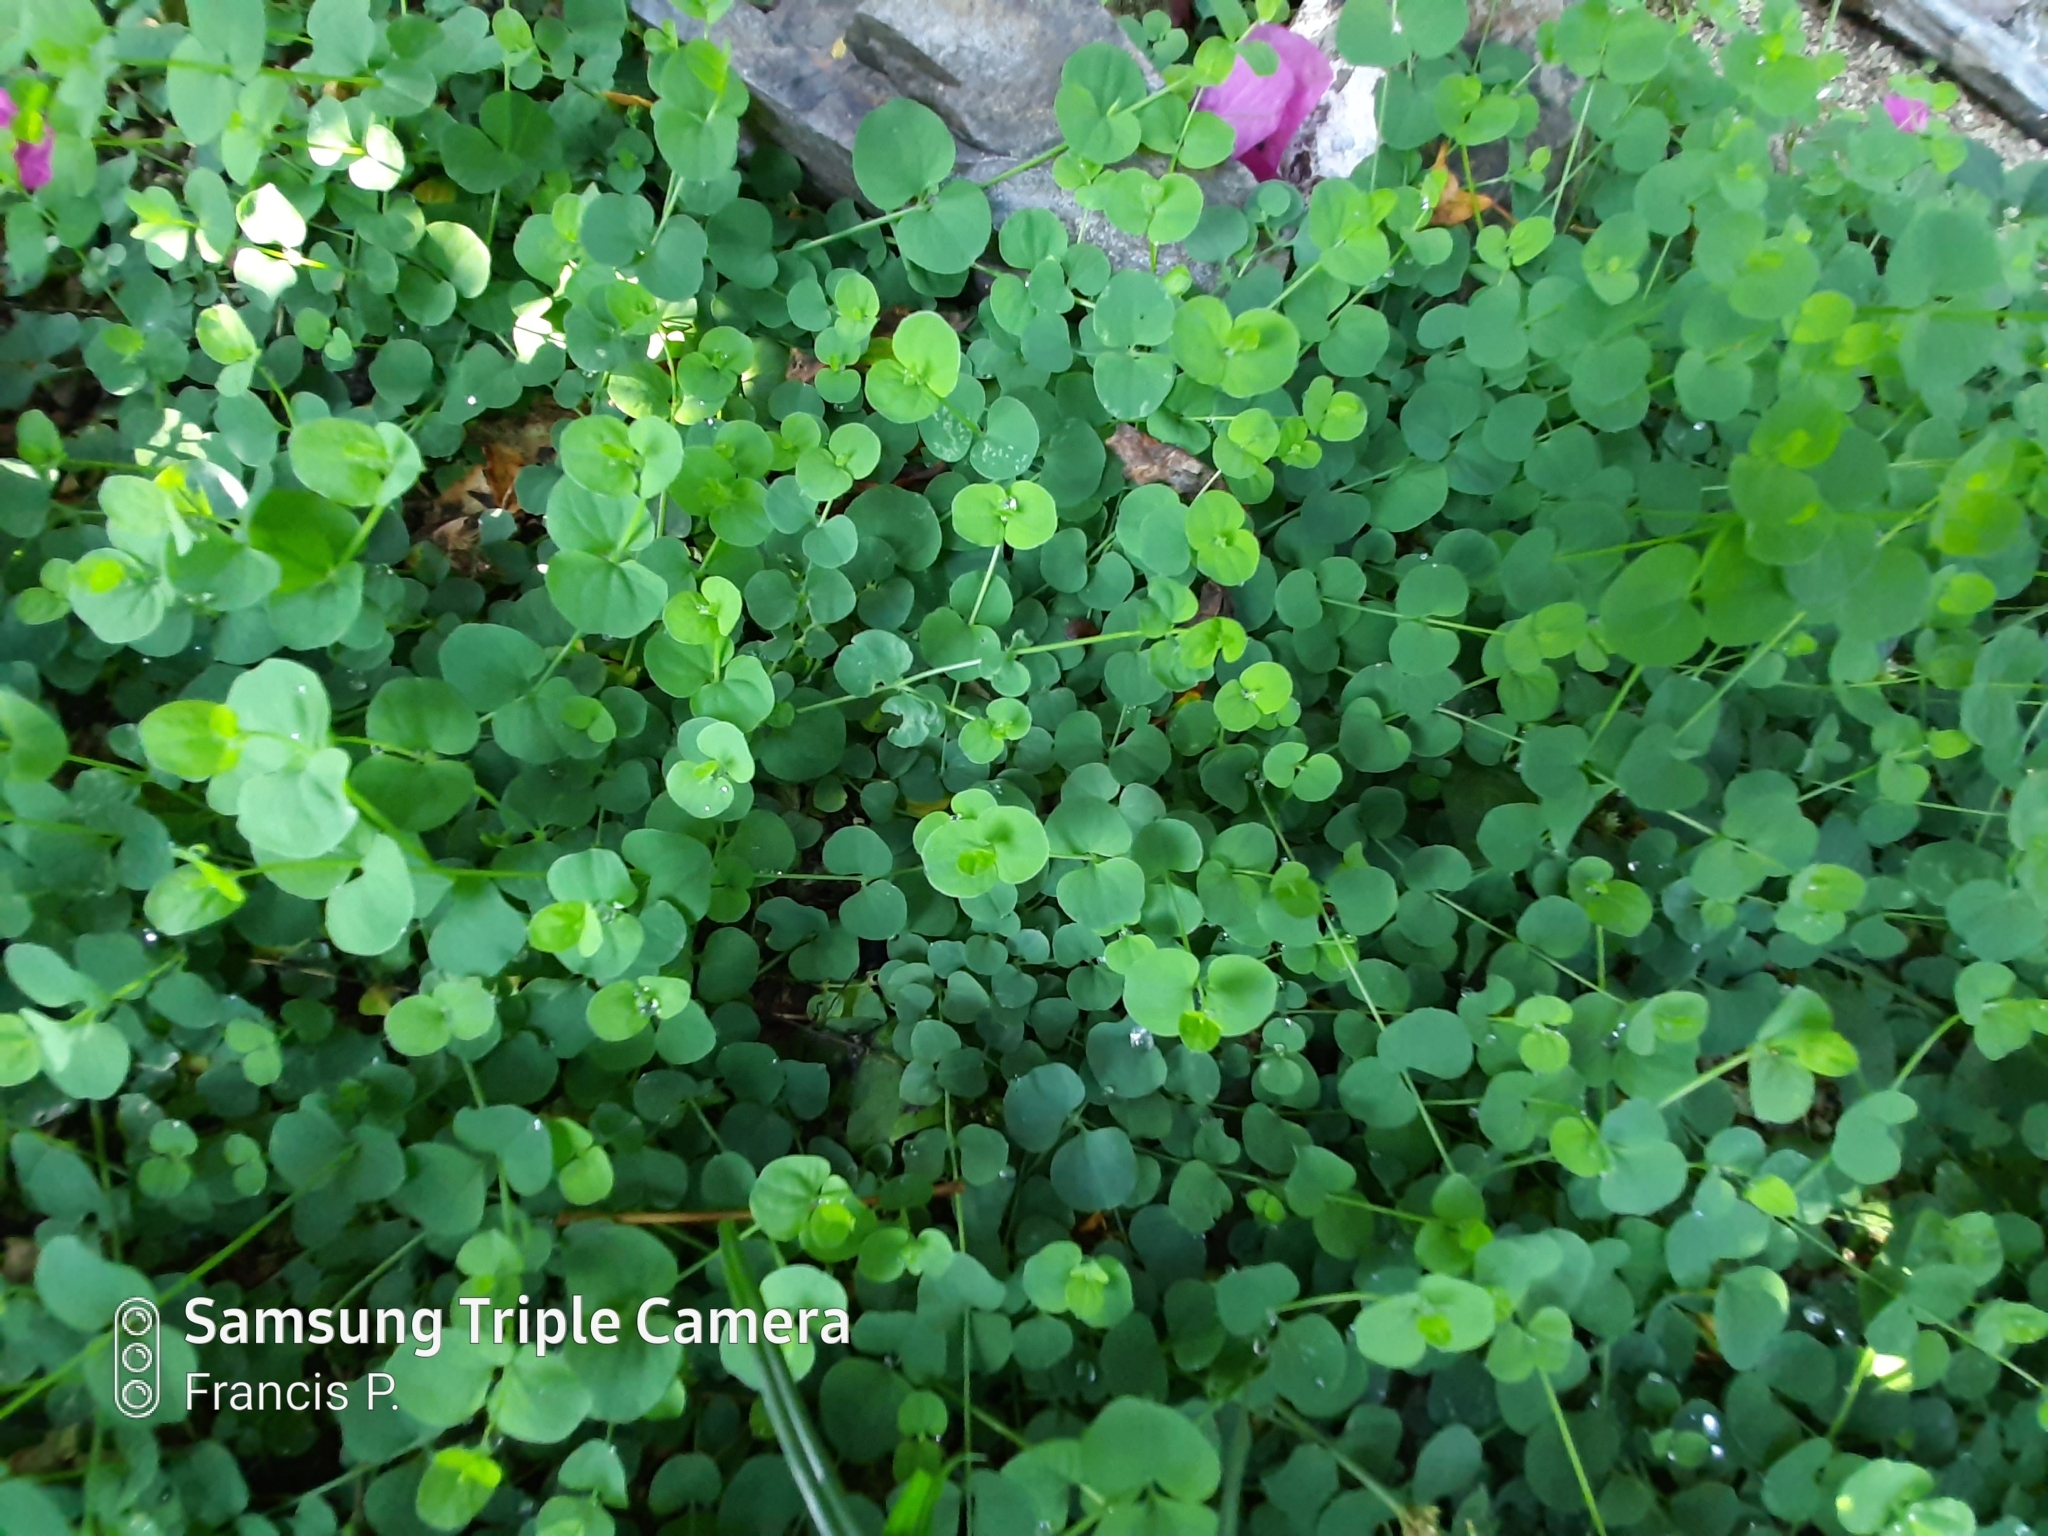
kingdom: Plantae
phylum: Tracheophyta
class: Magnoliopsida
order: Caryophyllales
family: Caryophyllaceae
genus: Drymaria
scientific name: Drymaria cordata
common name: Whitesnow
